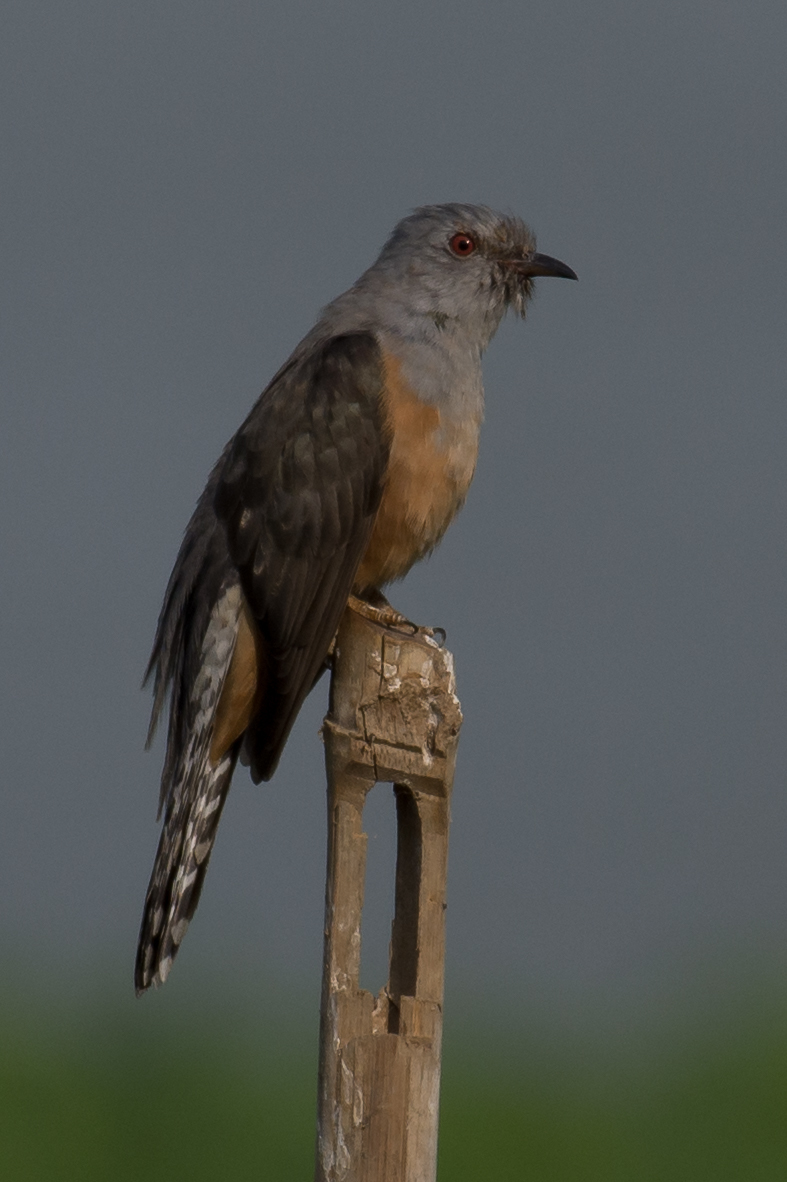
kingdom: Animalia
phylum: Chordata
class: Aves
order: Cuculiformes
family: Cuculidae
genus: Cacomantis
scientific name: Cacomantis merulinus
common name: Plaintive cuckoo
